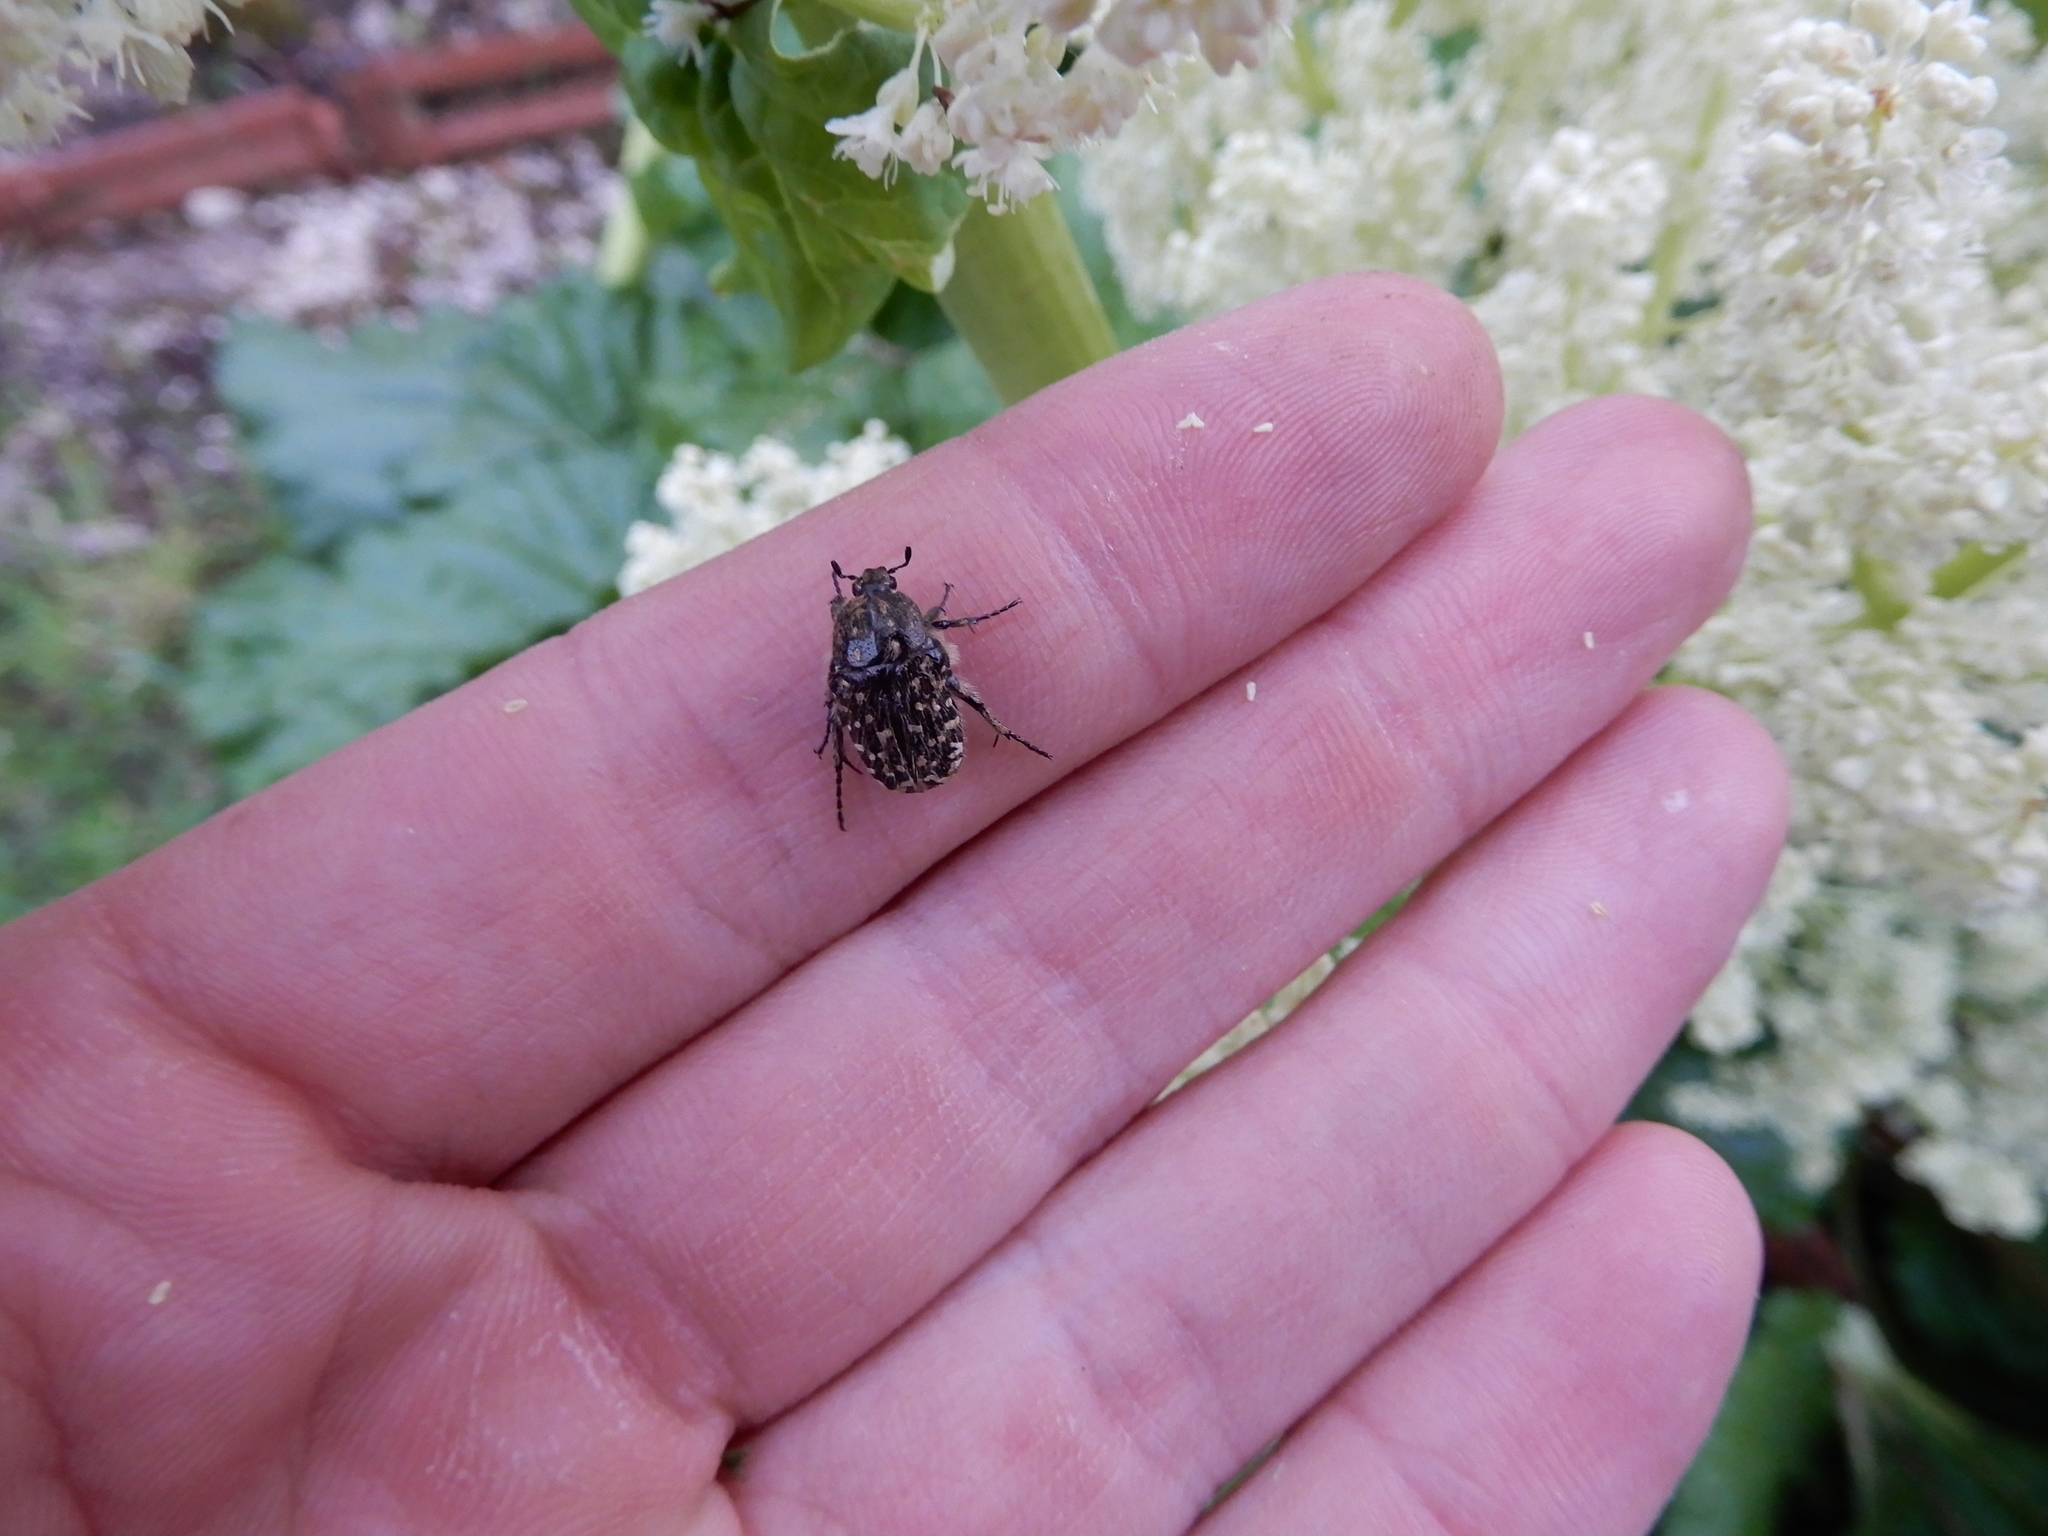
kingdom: Animalia
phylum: Arthropoda
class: Insecta
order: Coleoptera
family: Scarabaeidae
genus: Oxythyrea
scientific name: Oxythyrea funesta
